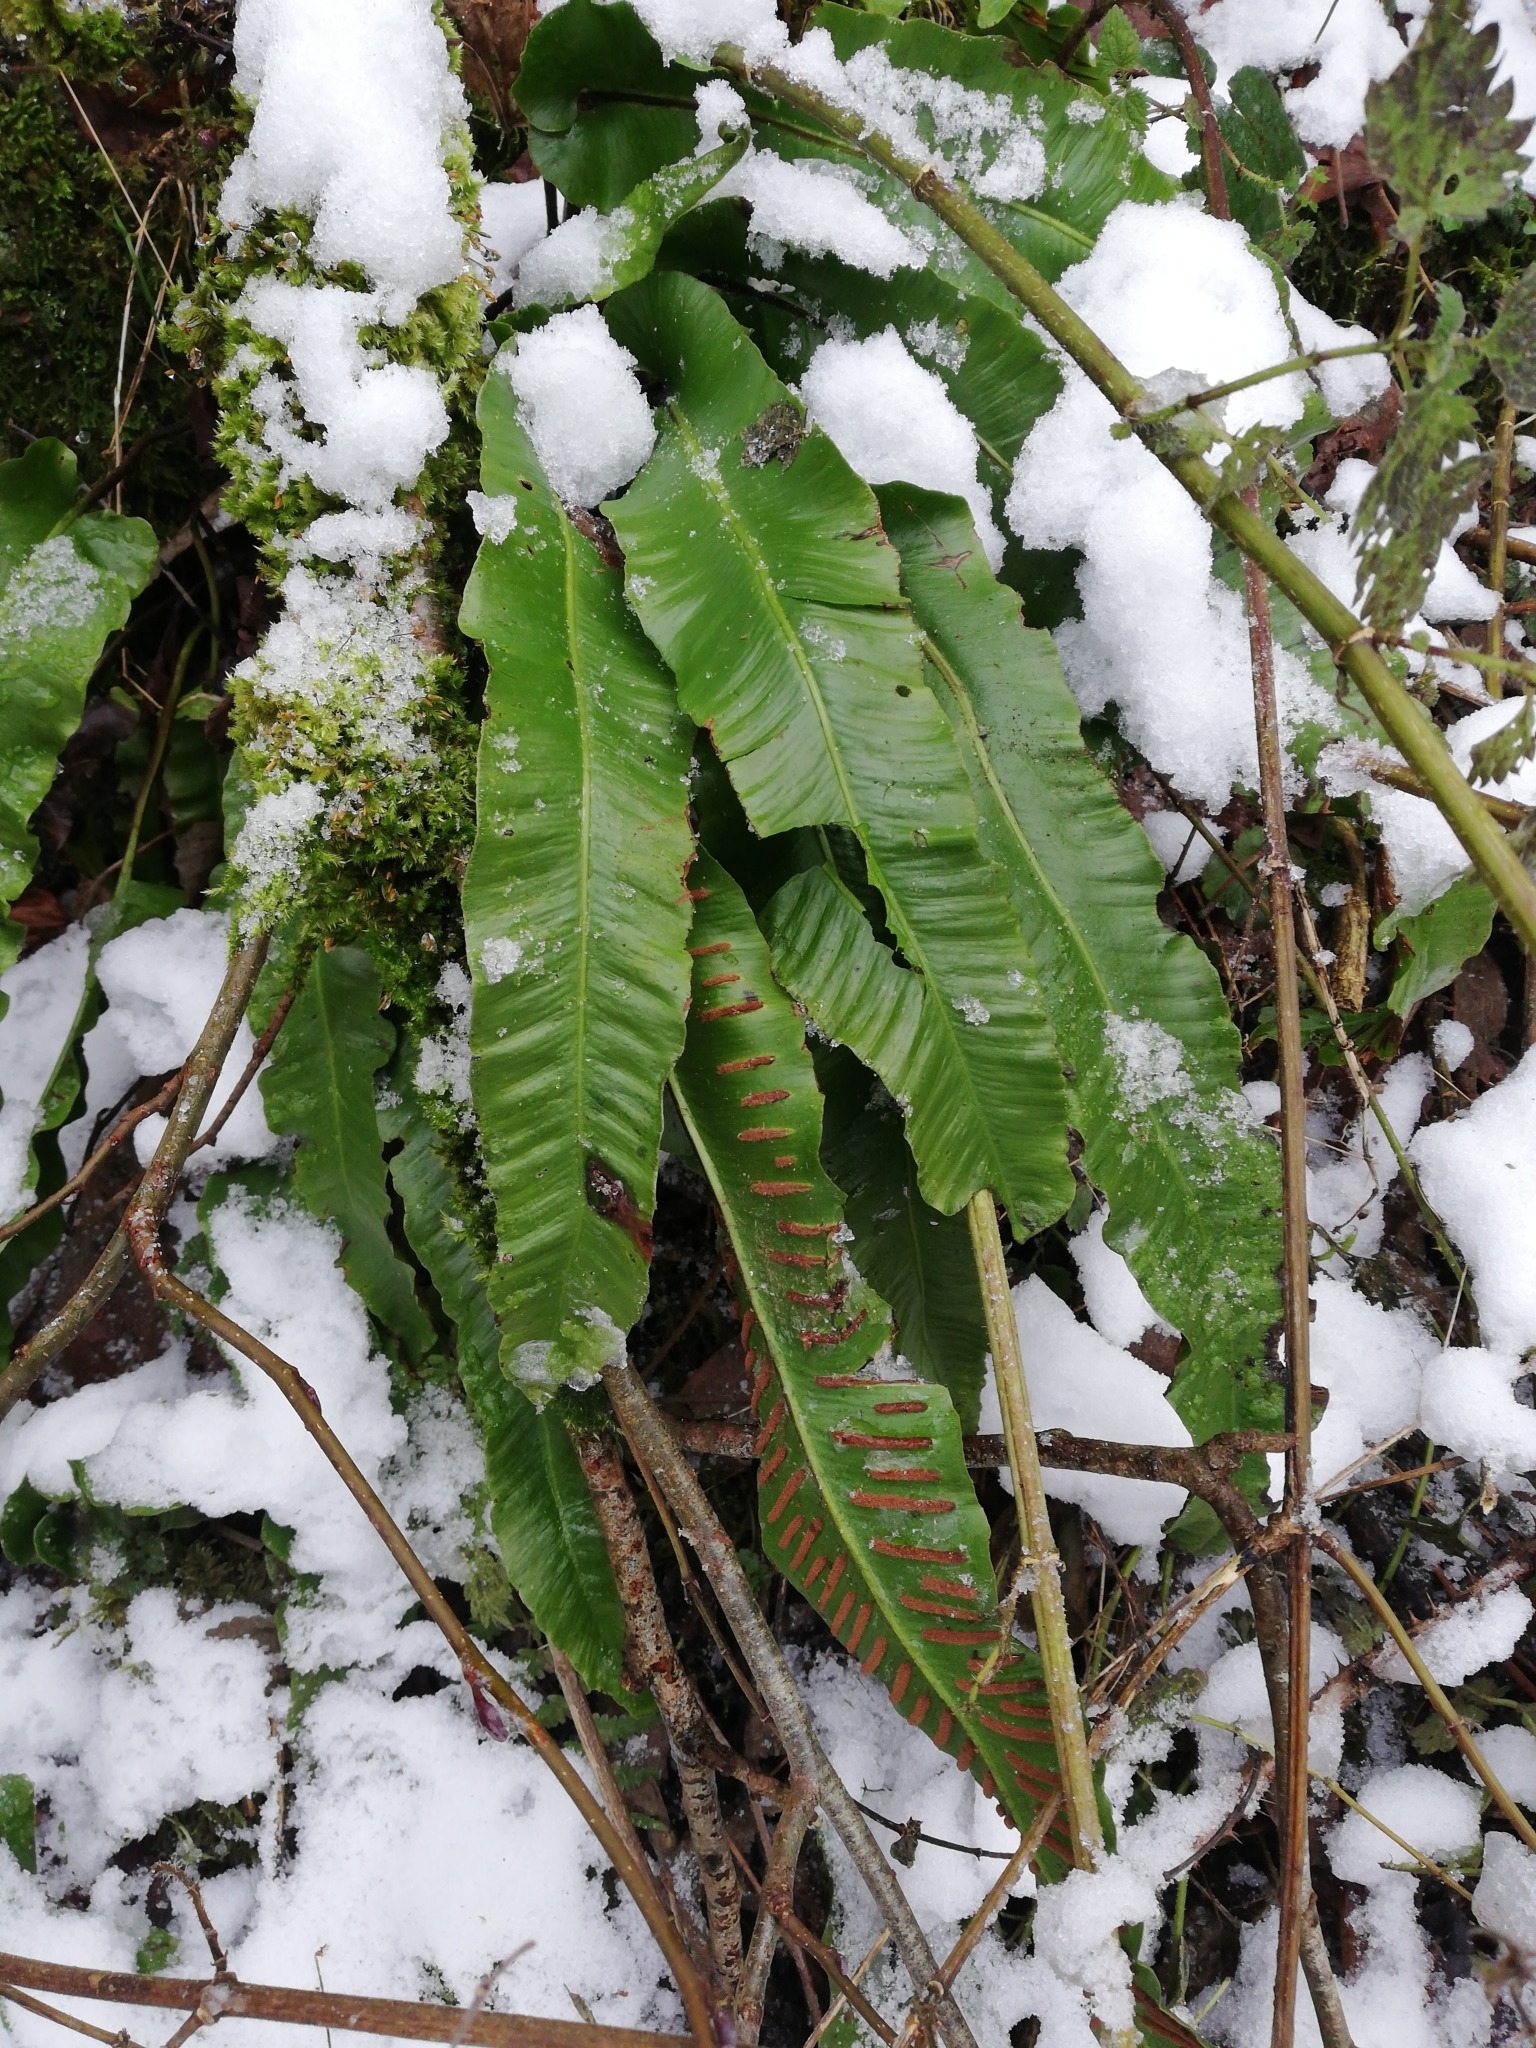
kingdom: Plantae
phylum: Tracheophyta
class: Polypodiopsida
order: Polypodiales
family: Aspleniaceae
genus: Asplenium
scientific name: Asplenium scolopendrium
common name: Hart's-tongue fern
